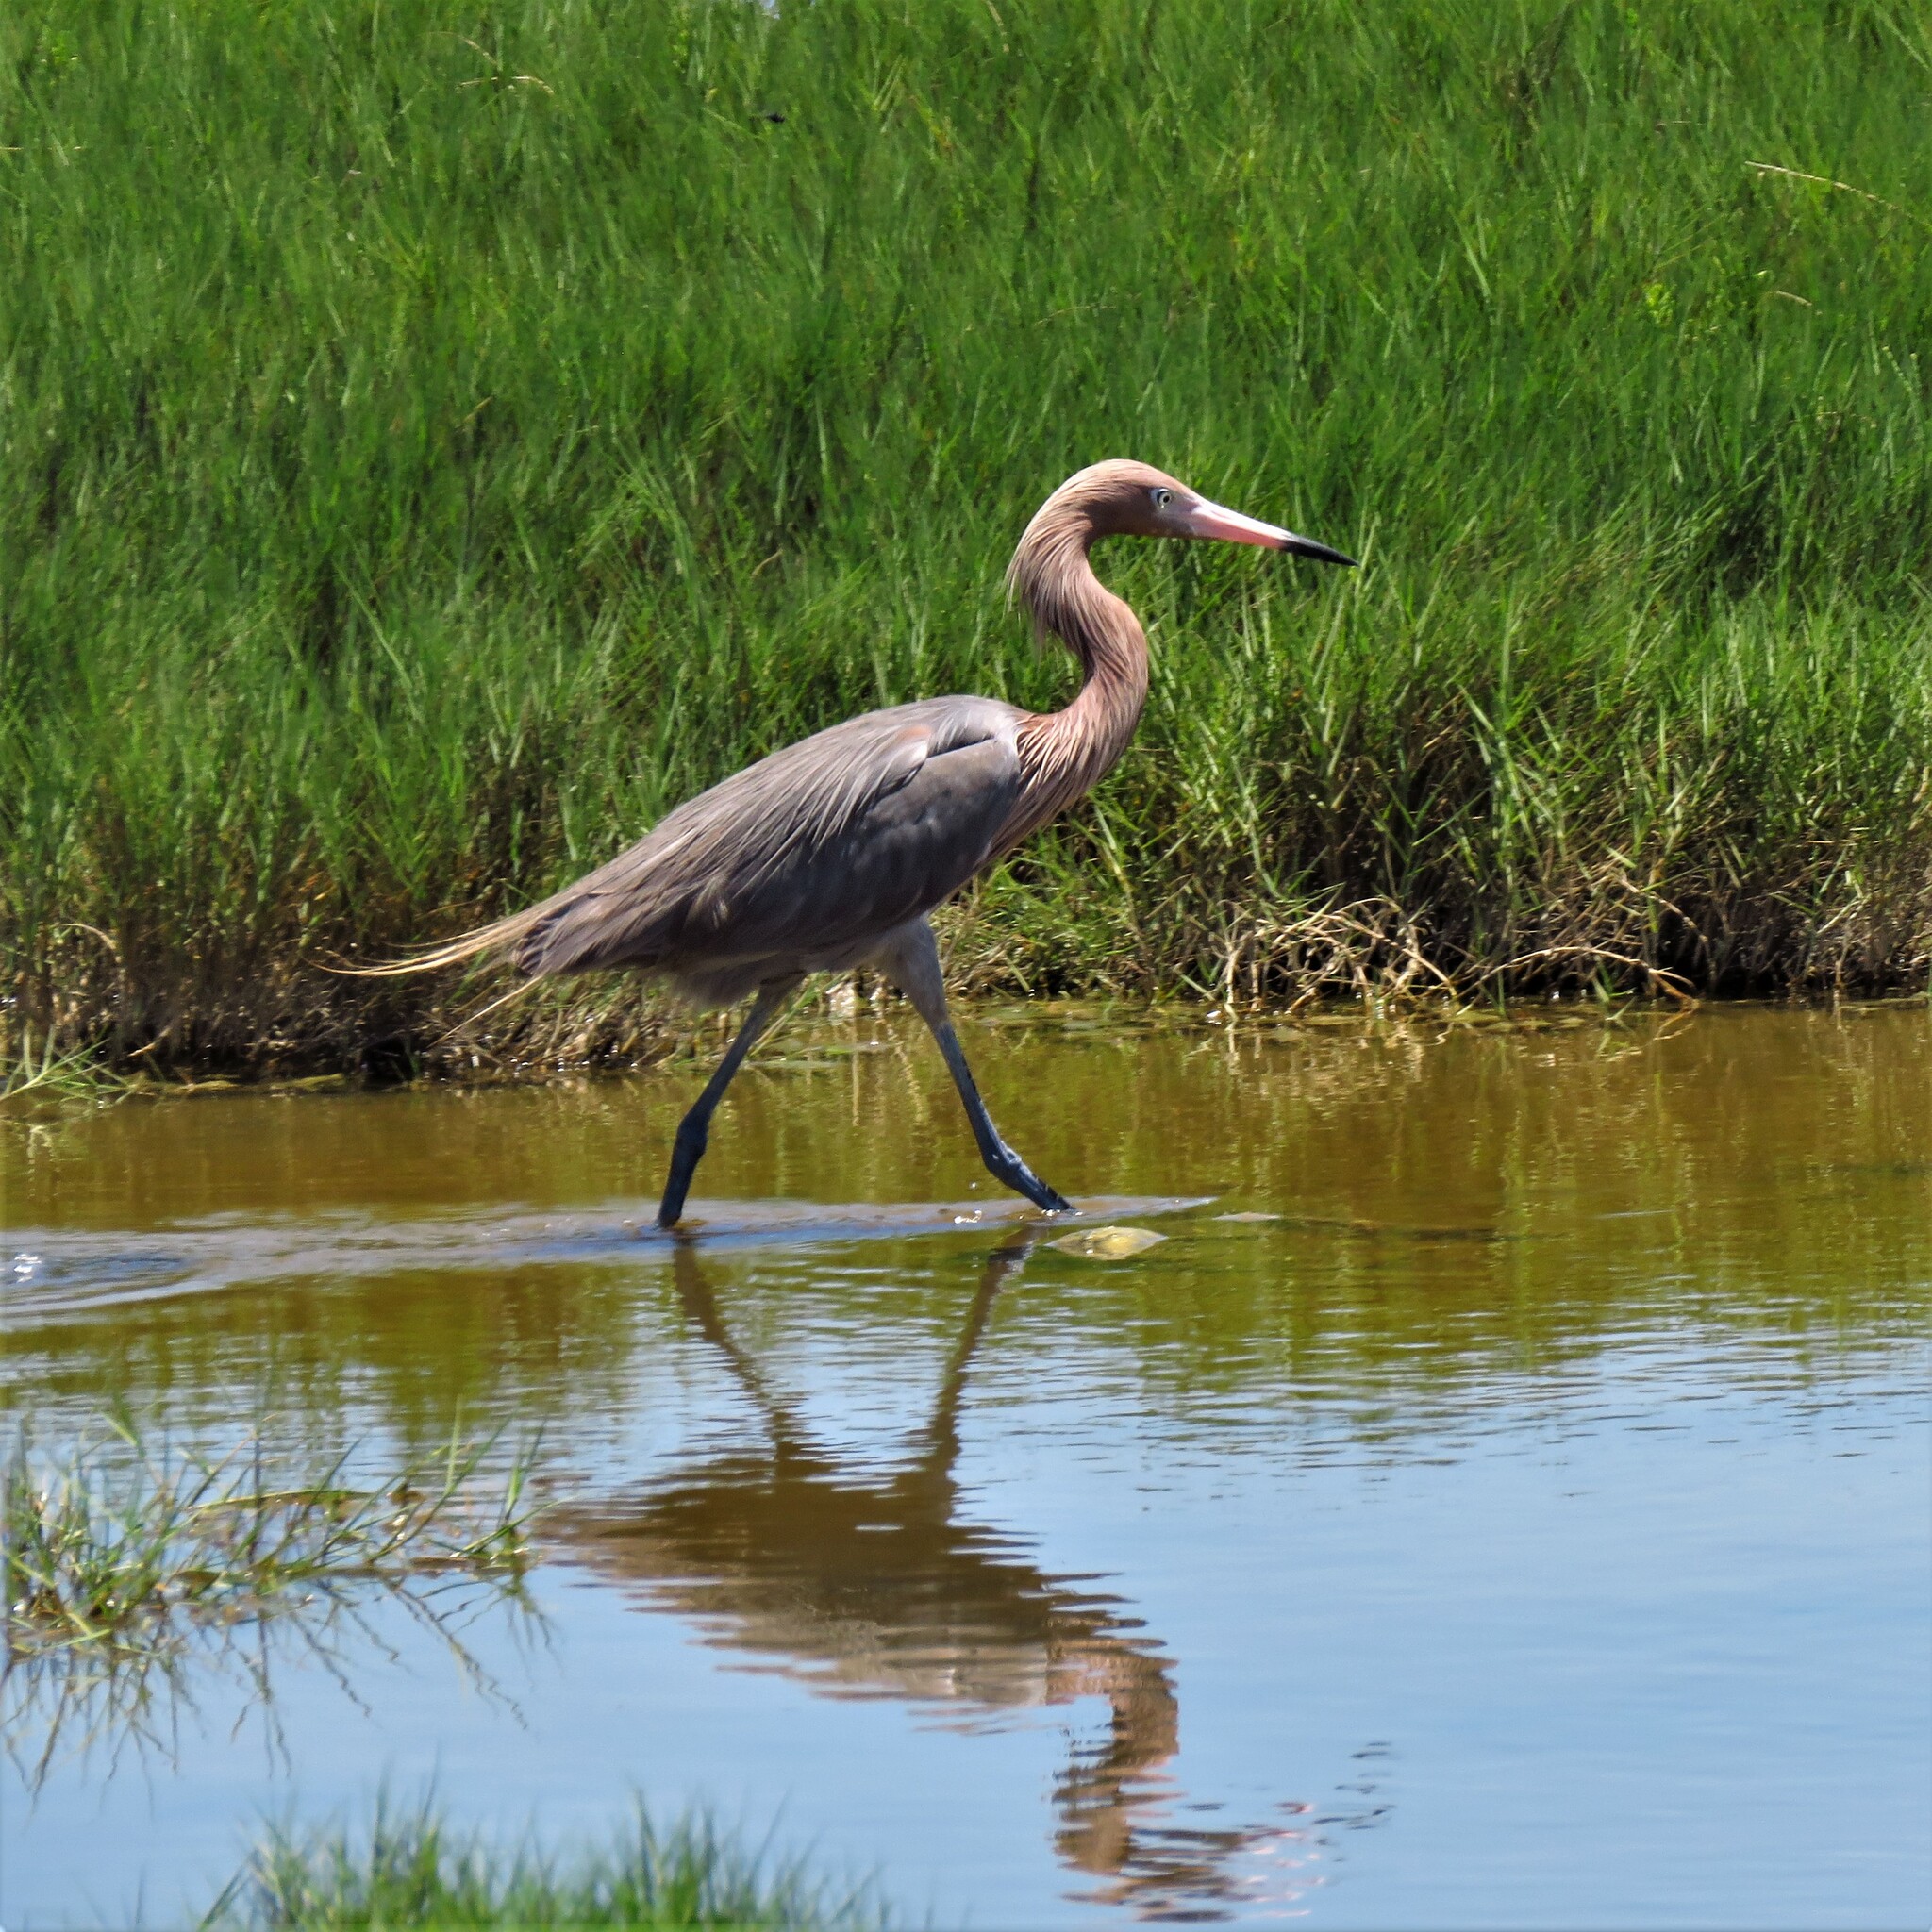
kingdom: Animalia
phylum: Chordata
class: Aves
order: Pelecaniformes
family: Ardeidae
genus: Egretta
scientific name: Egretta rufescens
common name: Reddish egret
